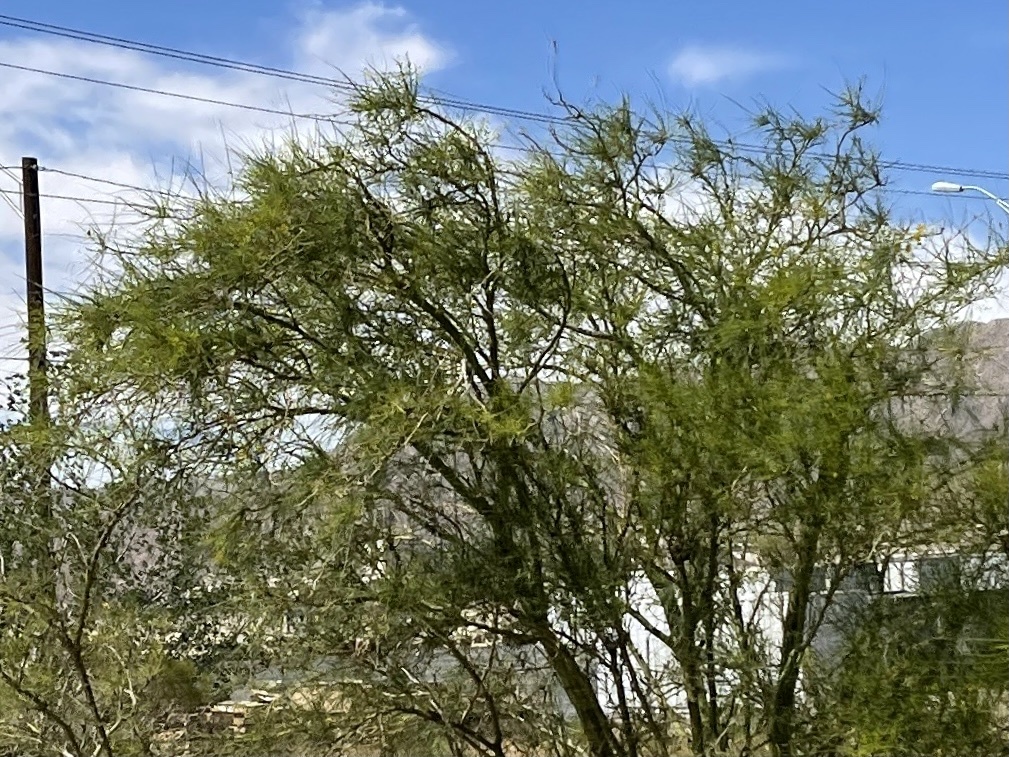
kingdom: Plantae
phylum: Tracheophyta
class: Magnoliopsida
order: Fabales
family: Fabaceae
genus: Parkinsonia
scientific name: Parkinsonia aculeata
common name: Jerusalem thorn
